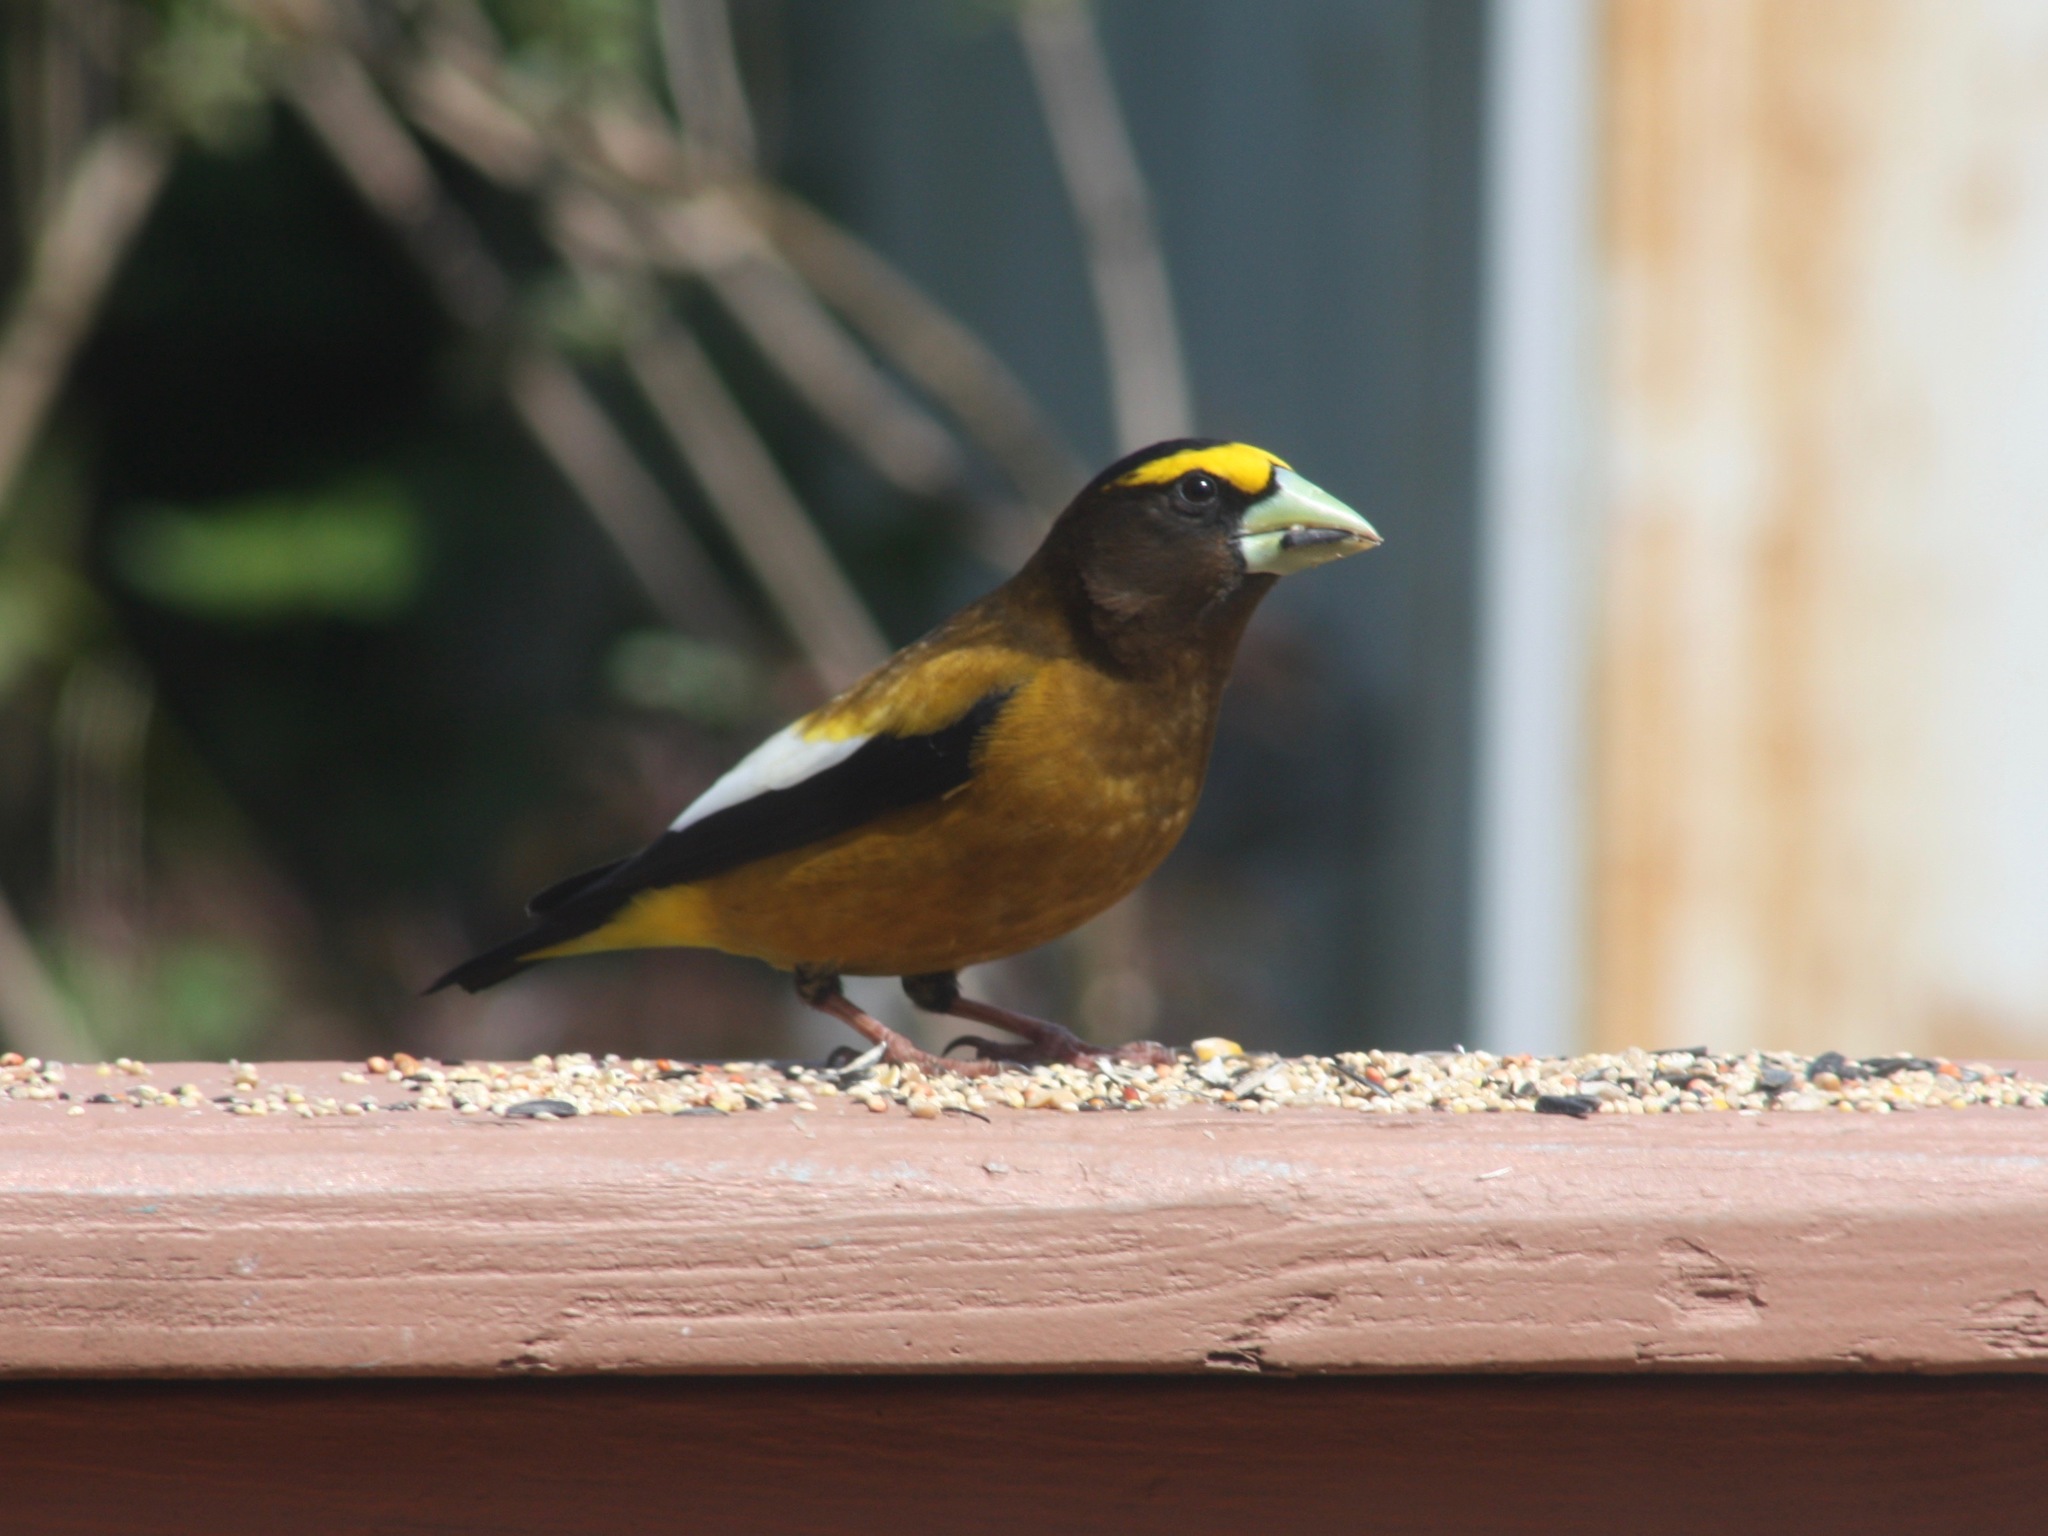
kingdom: Animalia
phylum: Chordata
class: Aves
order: Passeriformes
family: Fringillidae
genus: Hesperiphona
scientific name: Hesperiphona vespertina
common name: Evening grosbeak
